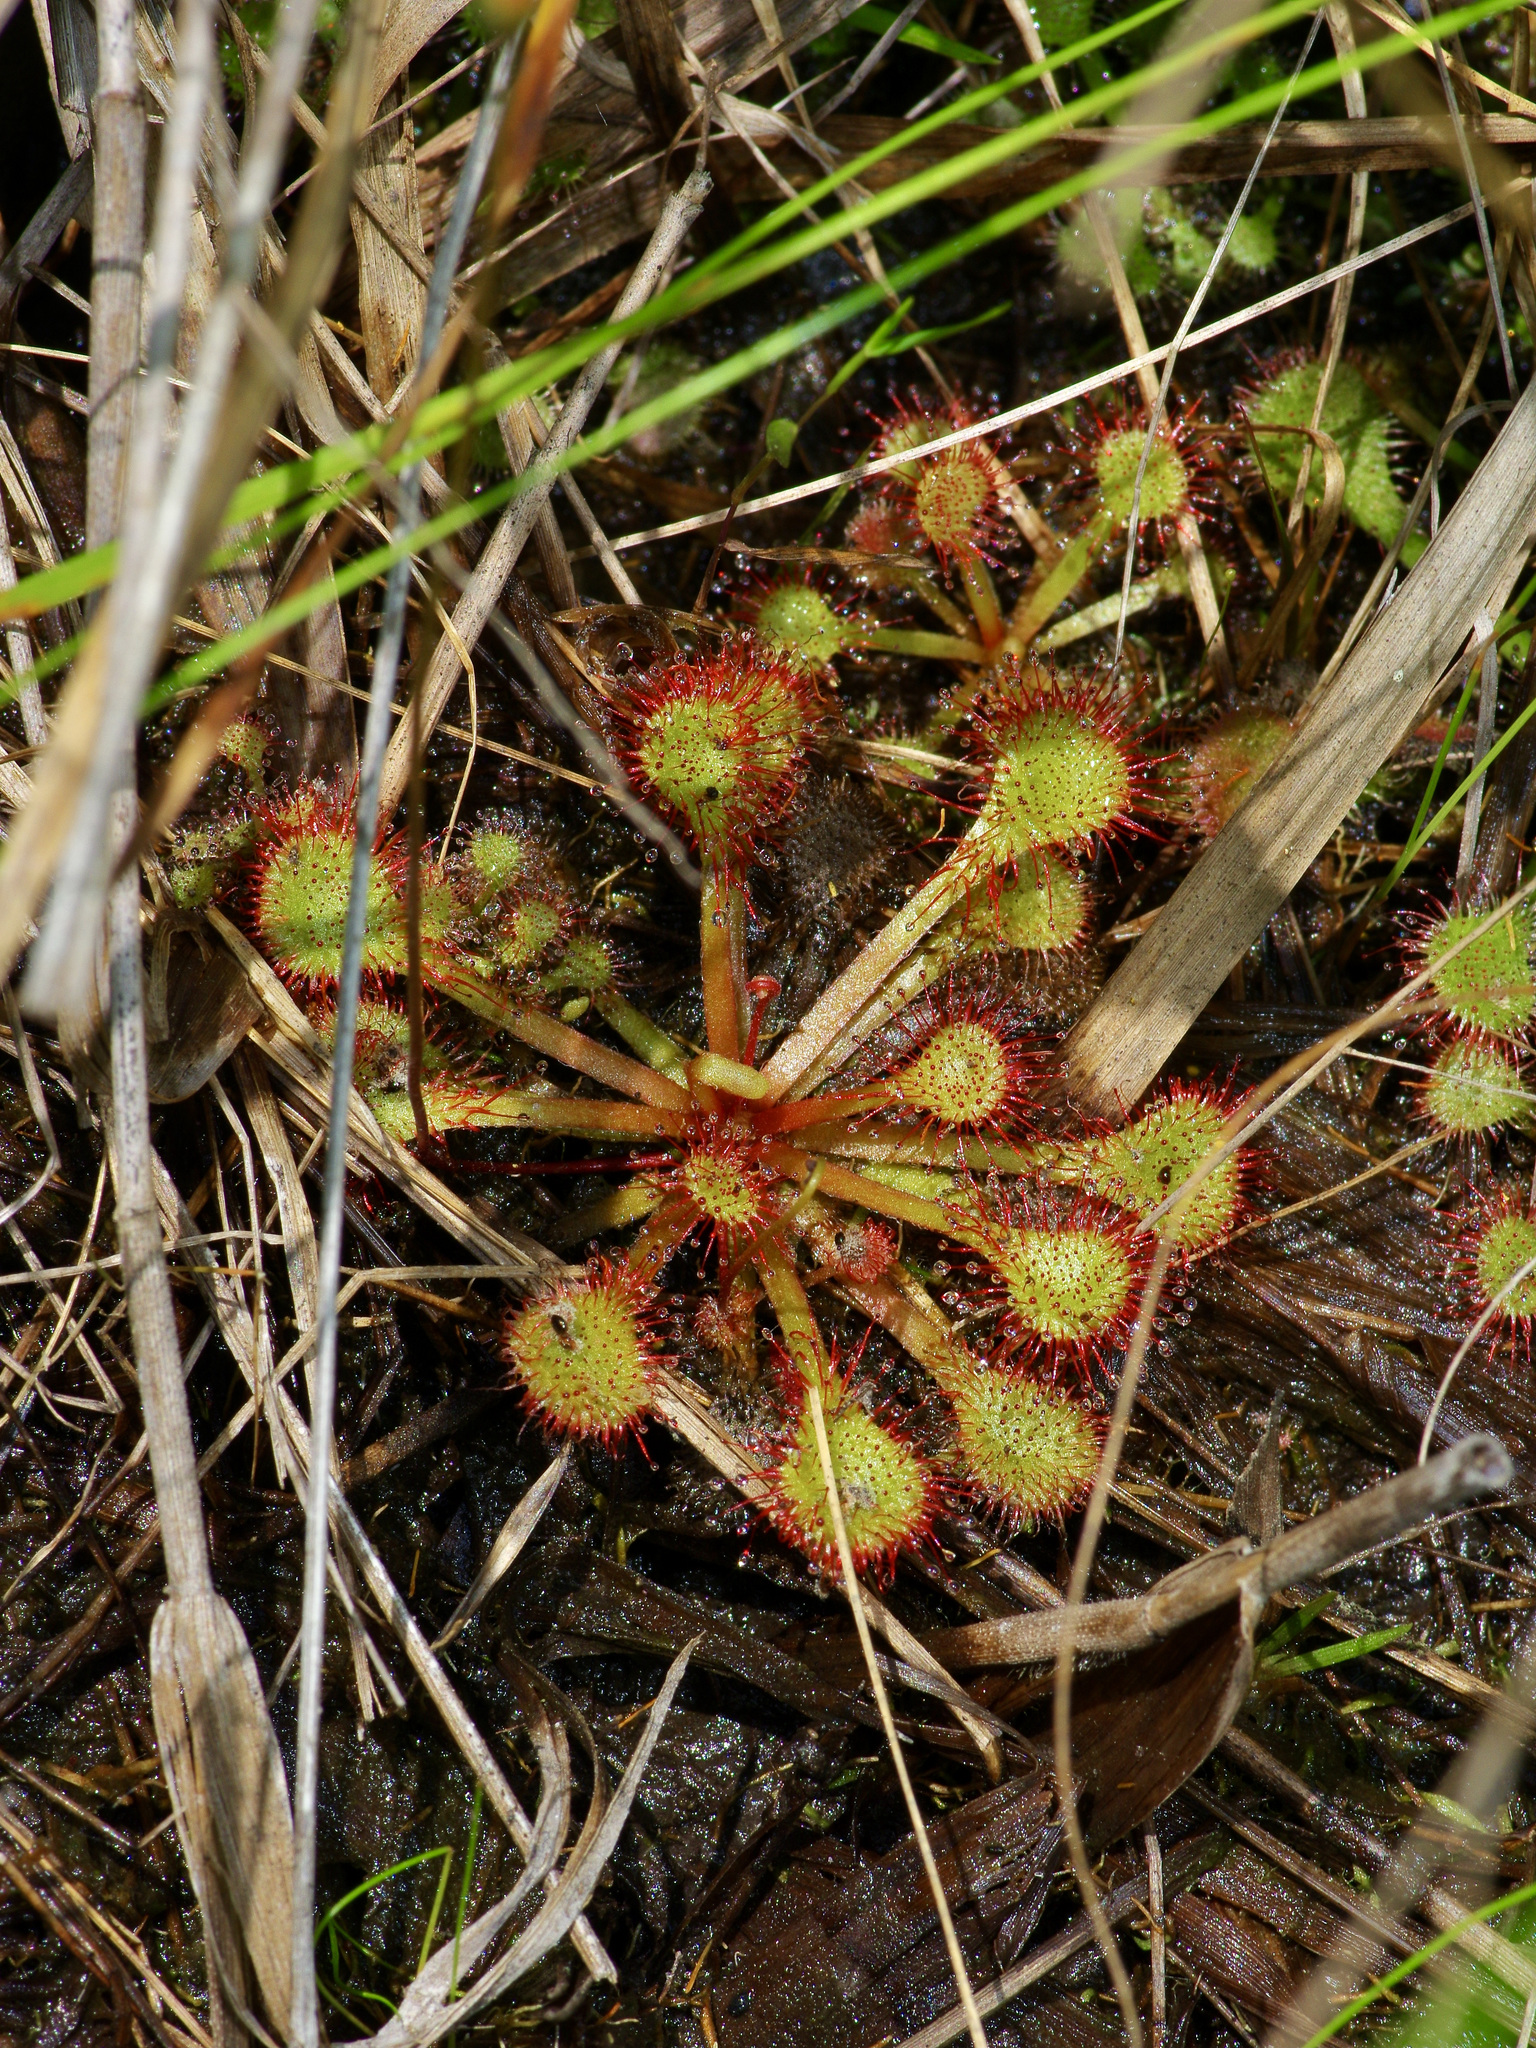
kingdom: Plantae
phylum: Tracheophyta
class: Magnoliopsida
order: Caryophyllales
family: Droseraceae
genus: Drosera
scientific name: Drosera capillaris
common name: Pink sundew
